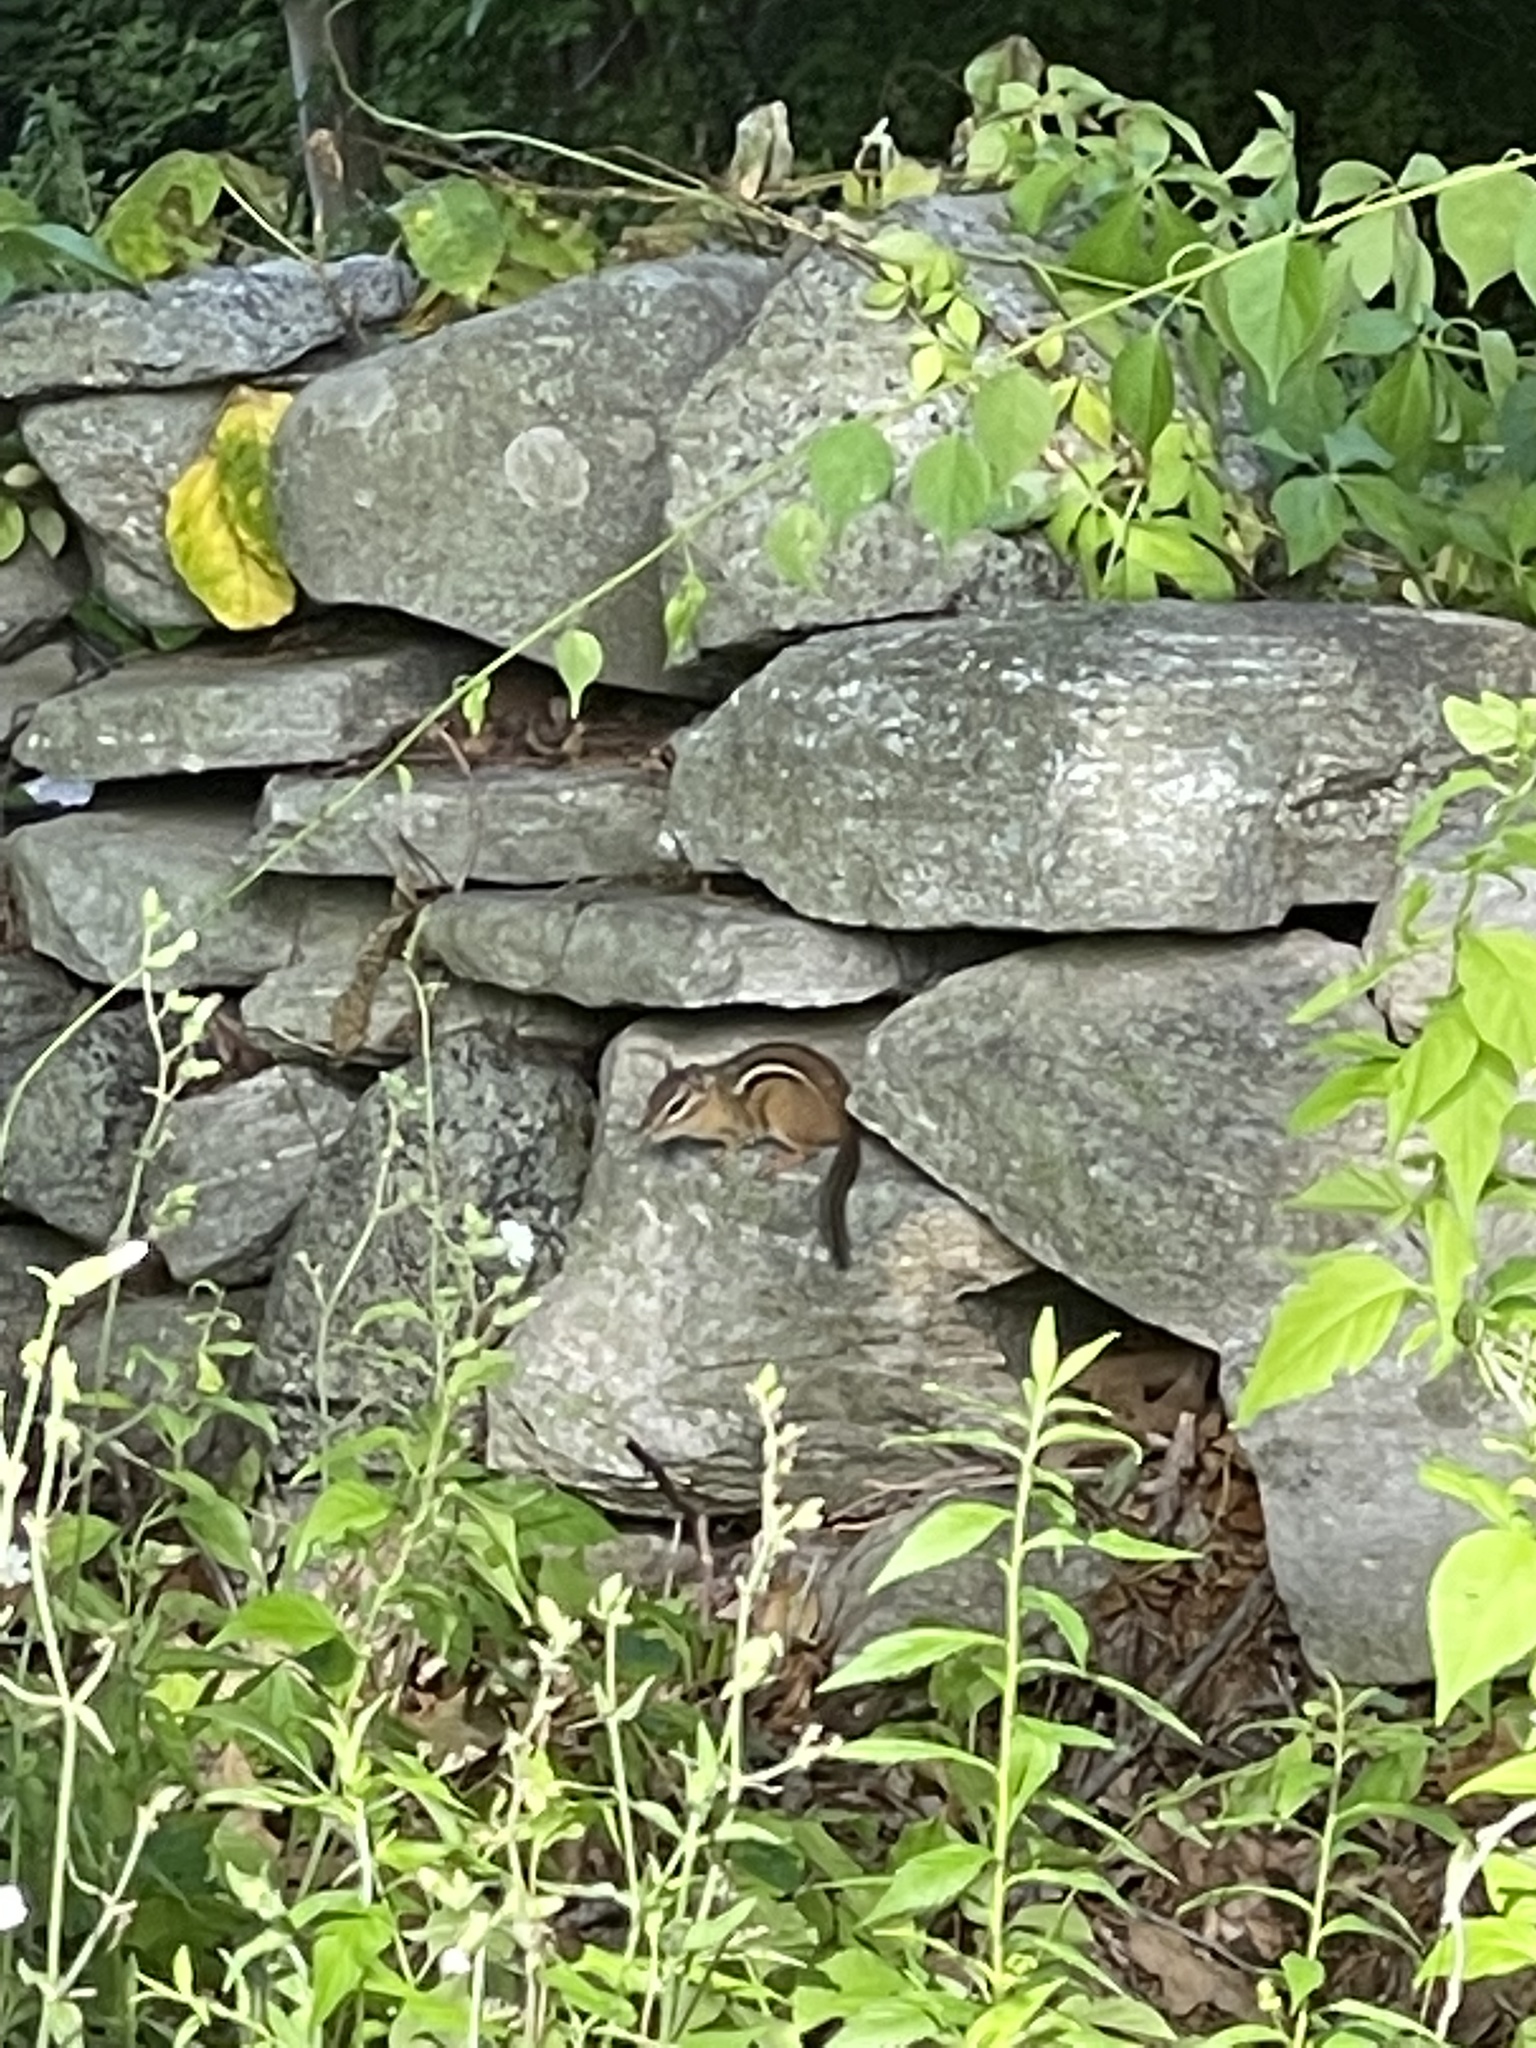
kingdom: Animalia
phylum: Chordata
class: Mammalia
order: Rodentia
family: Sciuridae
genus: Tamias
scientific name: Tamias striatus
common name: Eastern chipmunk
